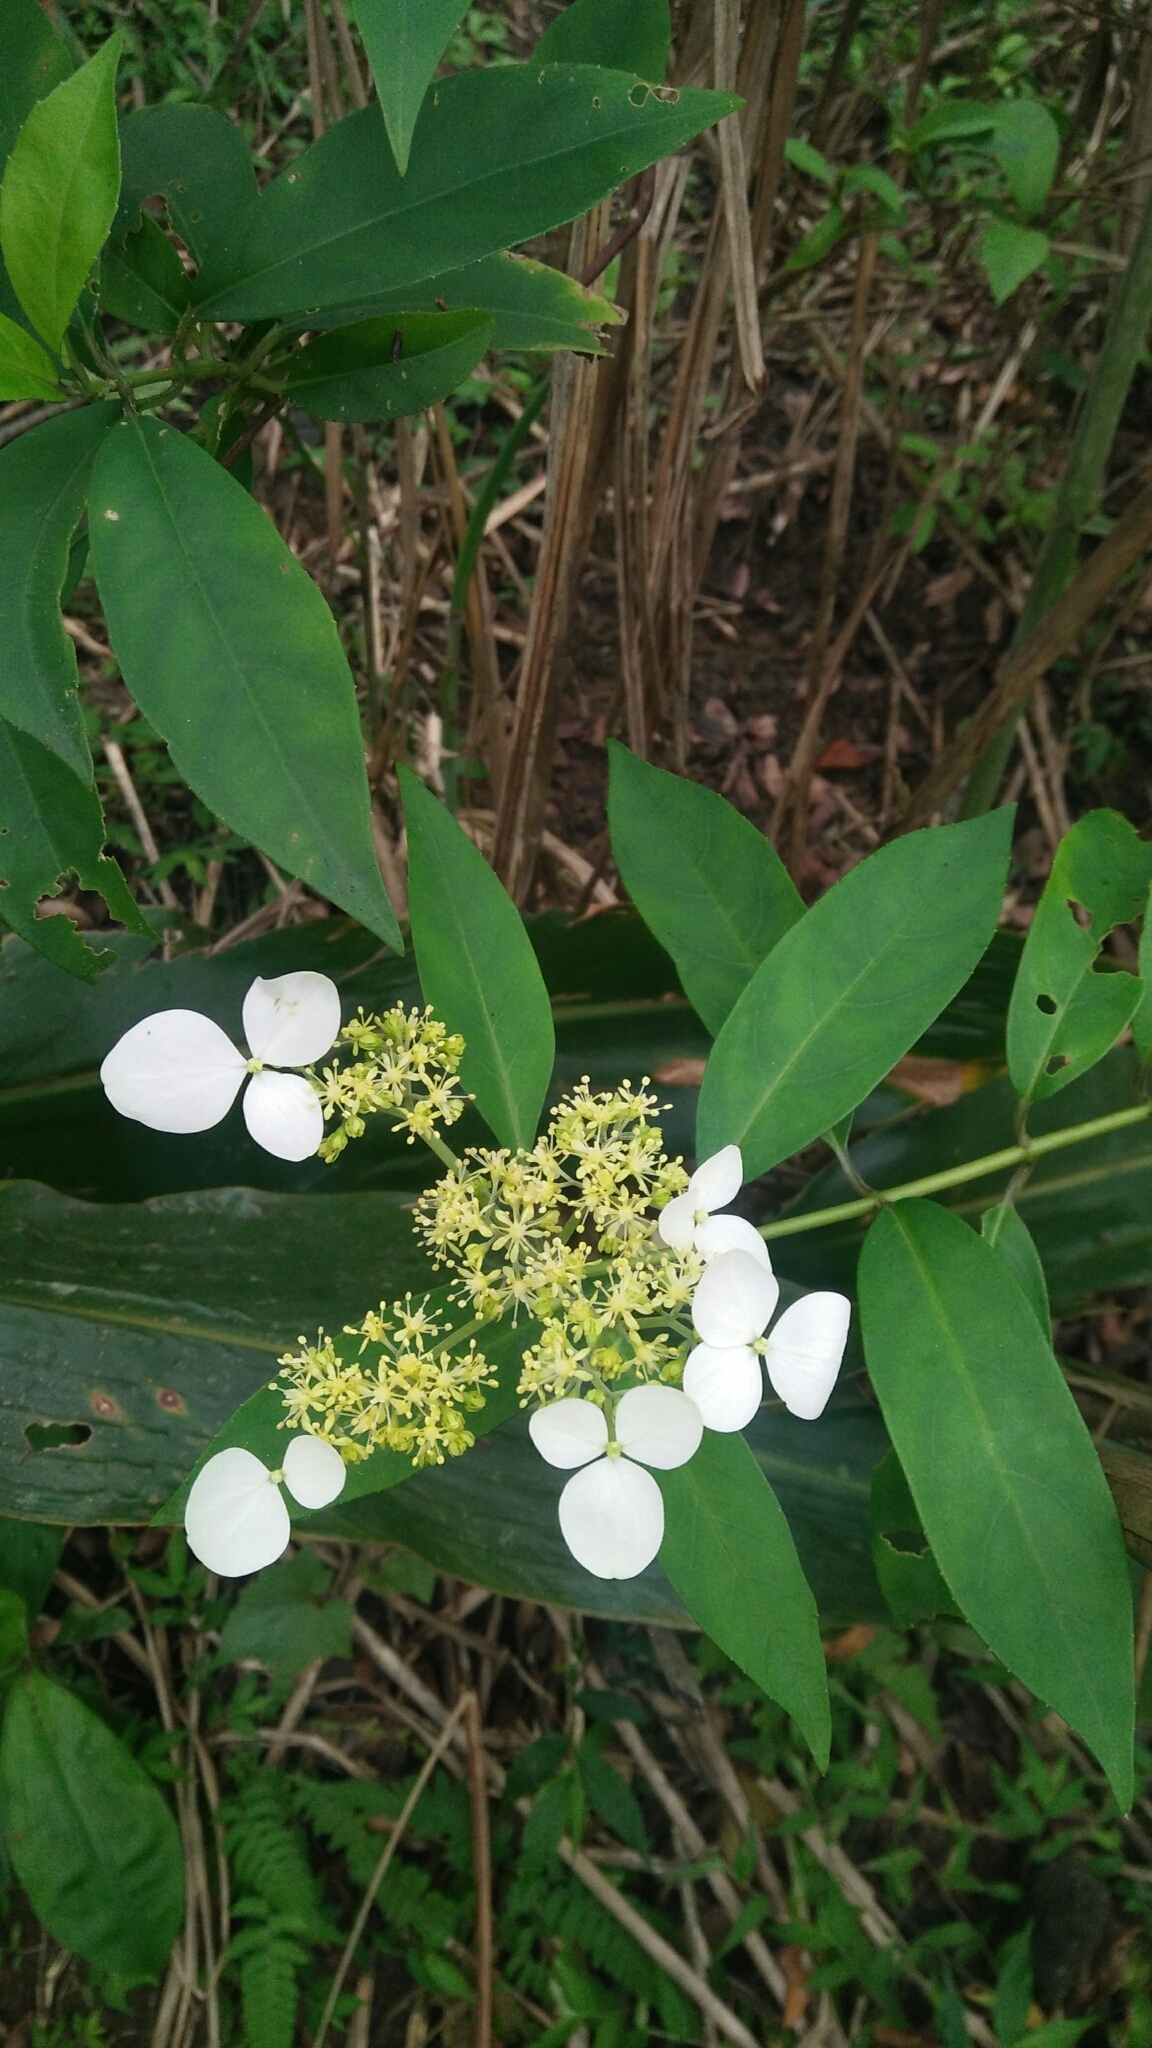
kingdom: Plantae
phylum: Tracheophyta
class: Magnoliopsida
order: Cornales
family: Hydrangeaceae
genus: Hydrangea
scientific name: Hydrangea chinensis
